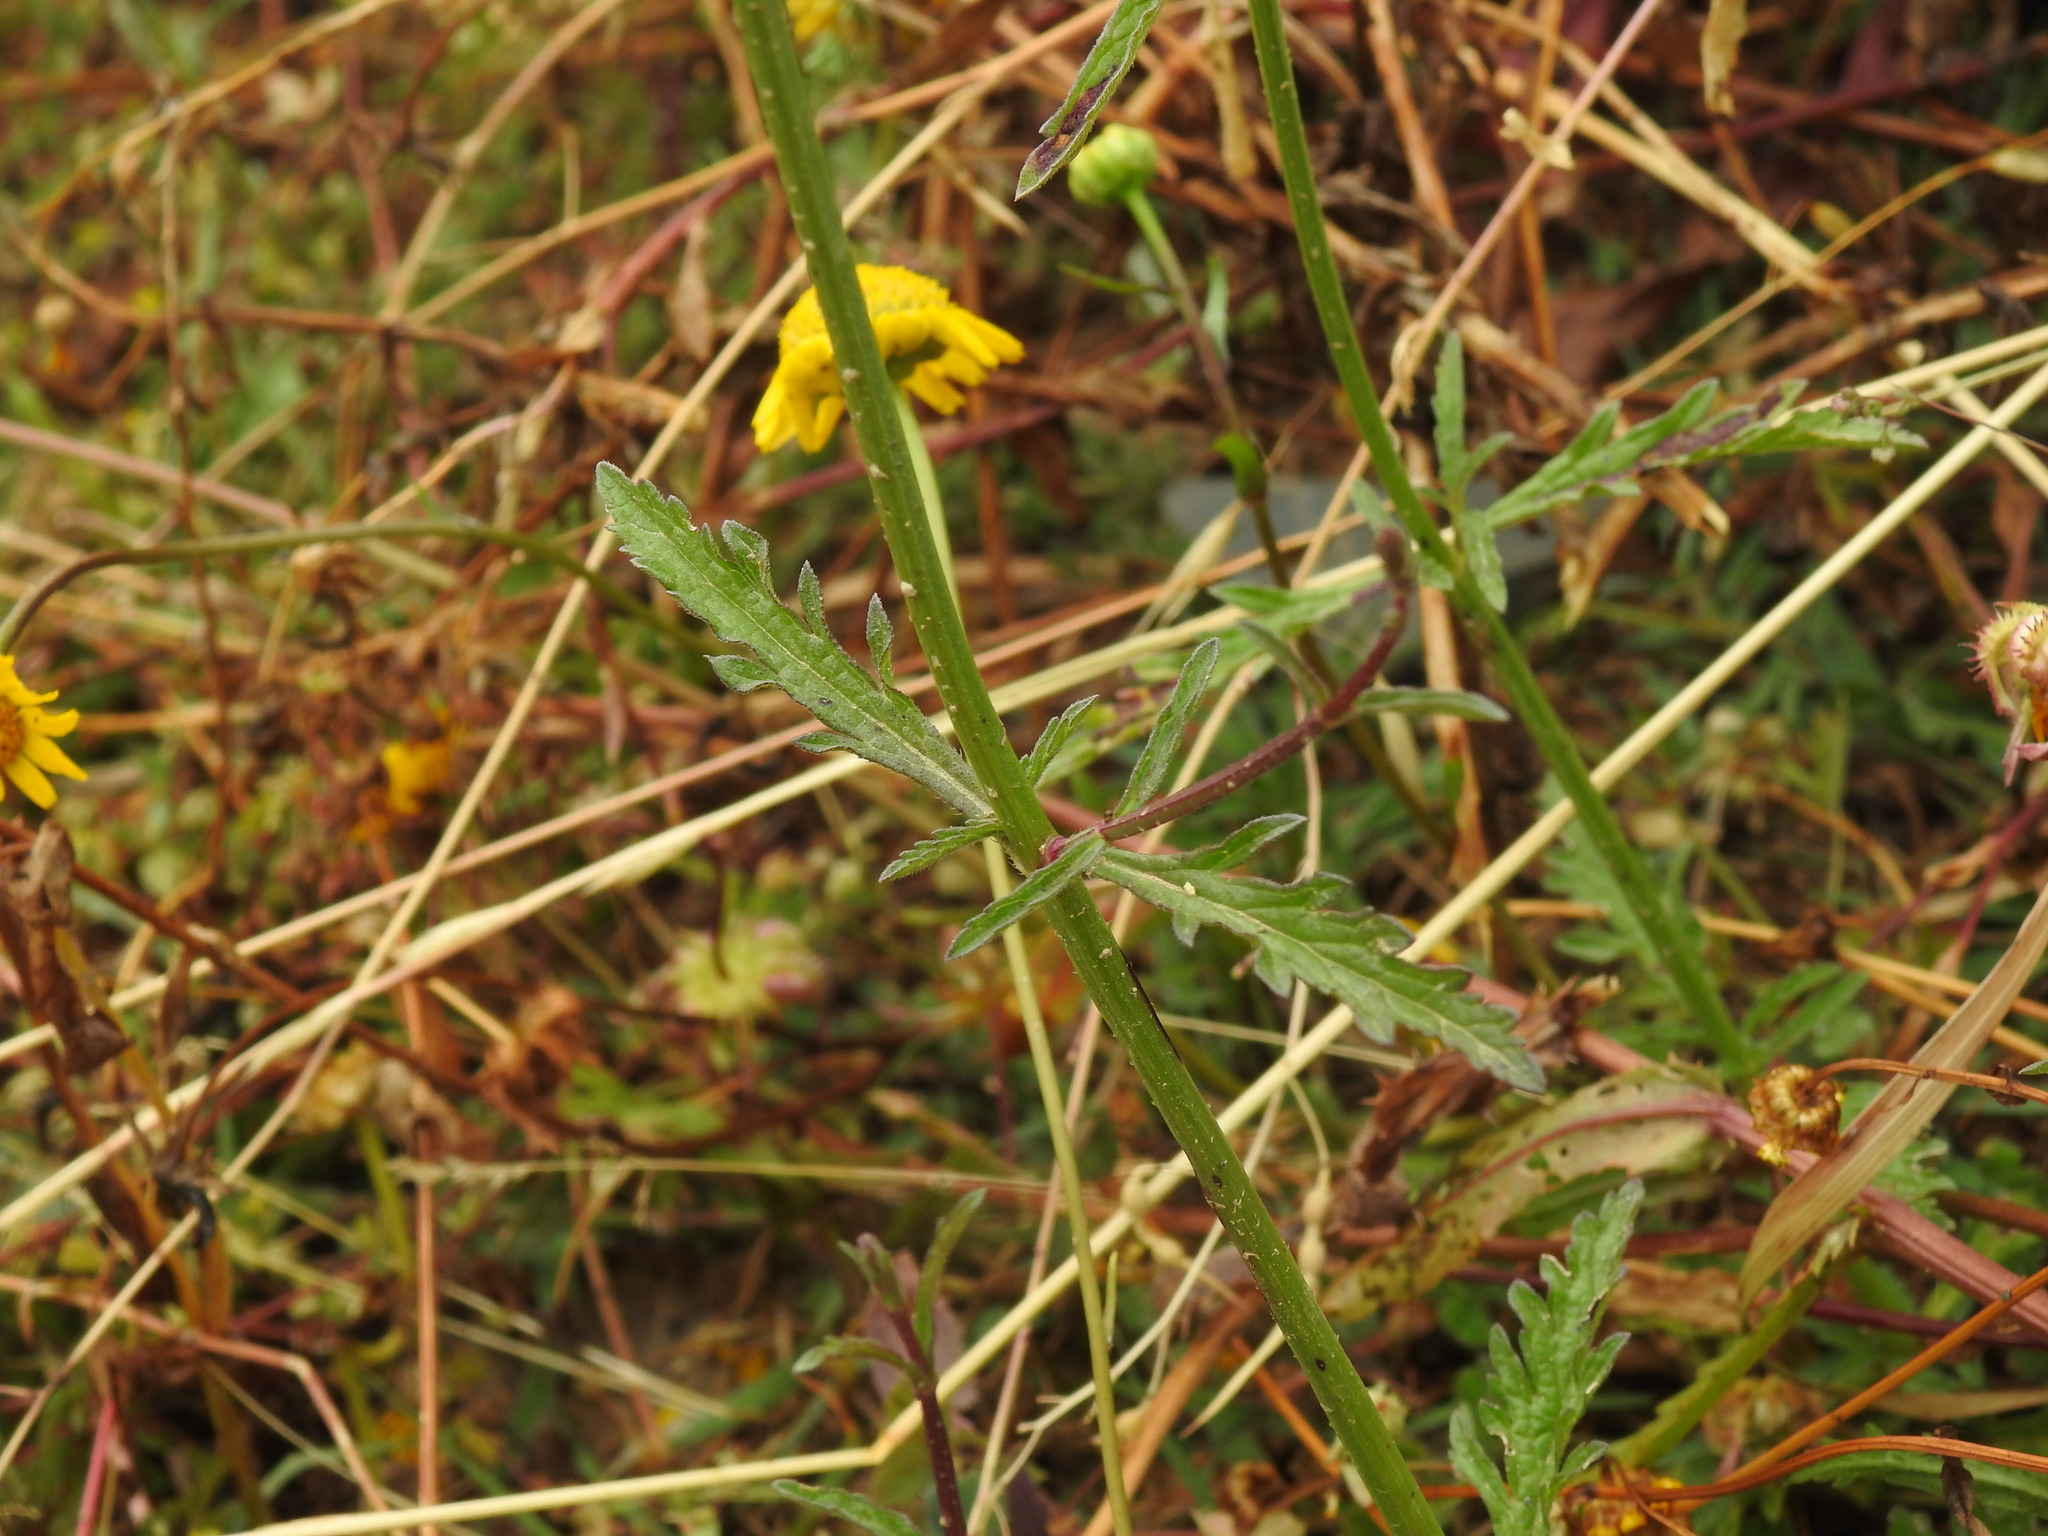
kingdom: Plantae
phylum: Tracheophyta
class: Magnoliopsida
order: Lamiales
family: Verbenaceae
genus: Verbena
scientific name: Verbena officinalis
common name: Vervain
